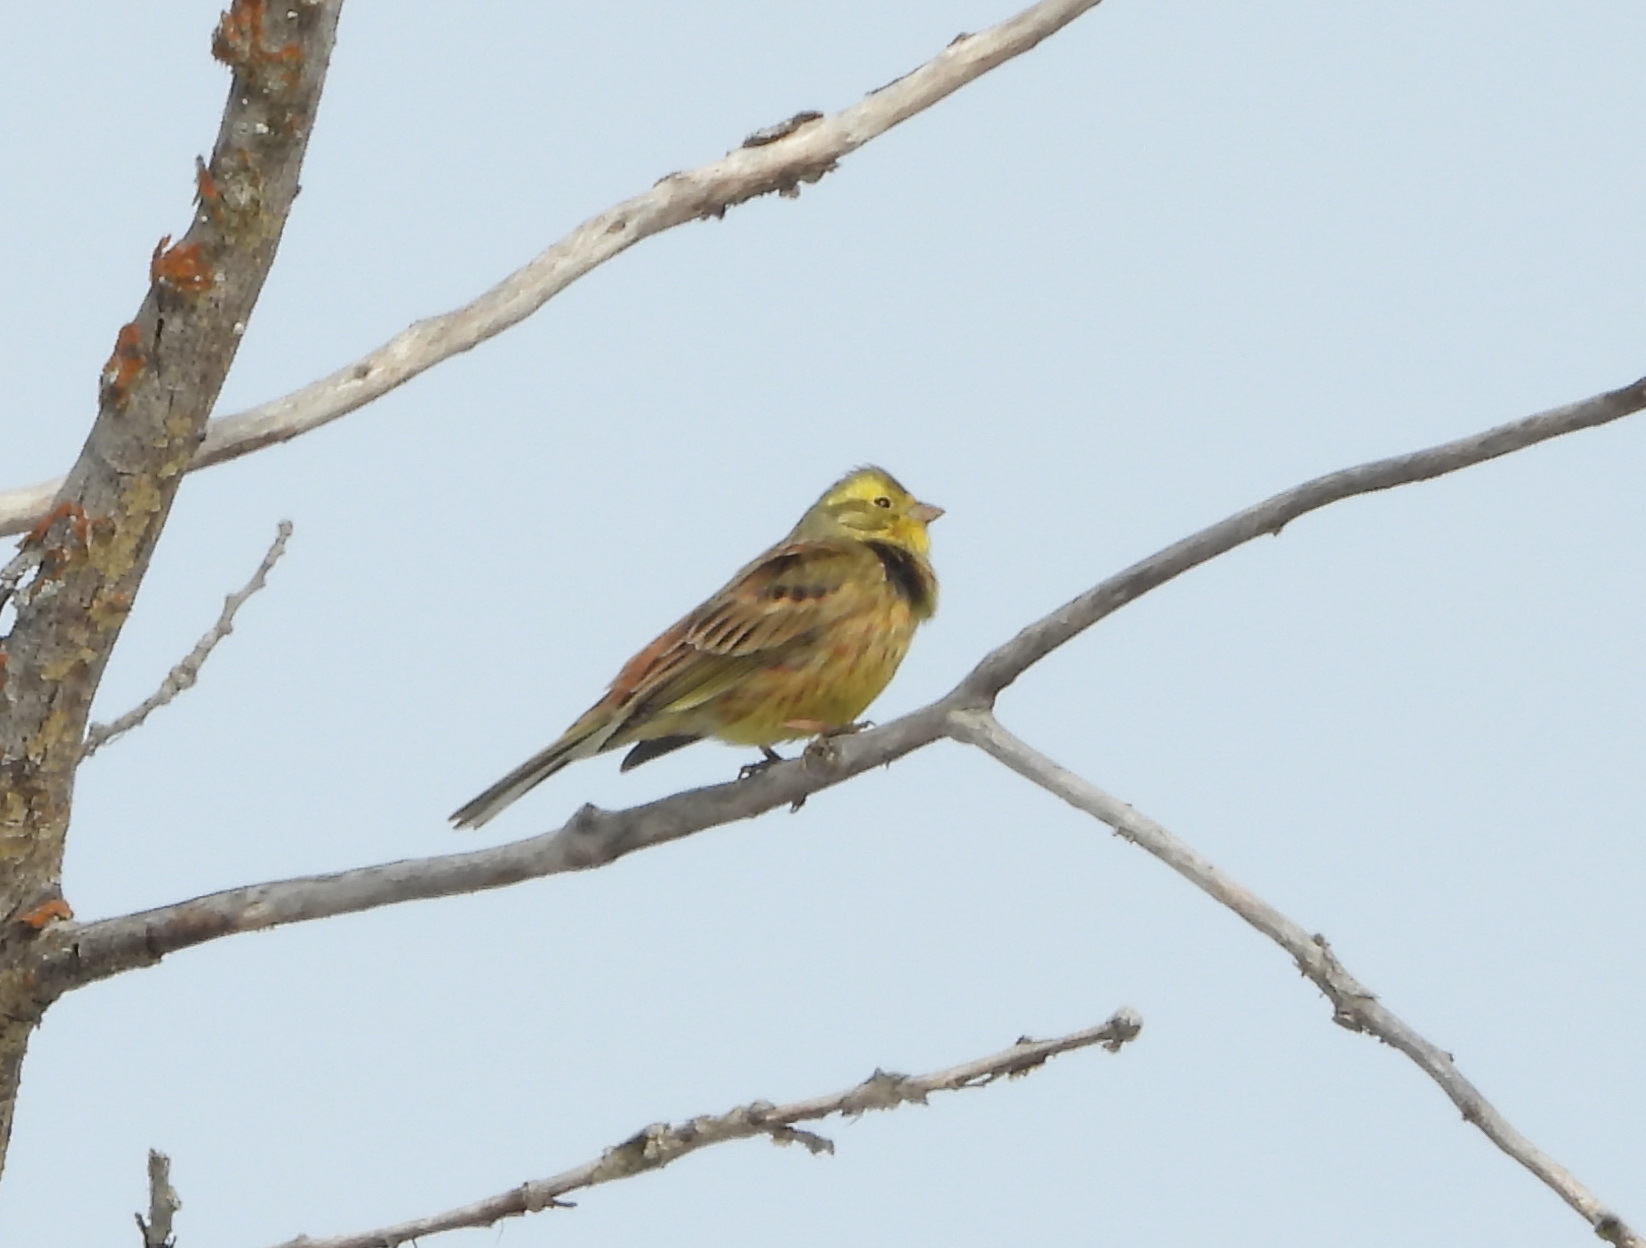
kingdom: Animalia
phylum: Chordata
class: Aves
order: Charadriiformes
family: Laridae
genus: Larus
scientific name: Larus cachinnans
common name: Caspian gull
